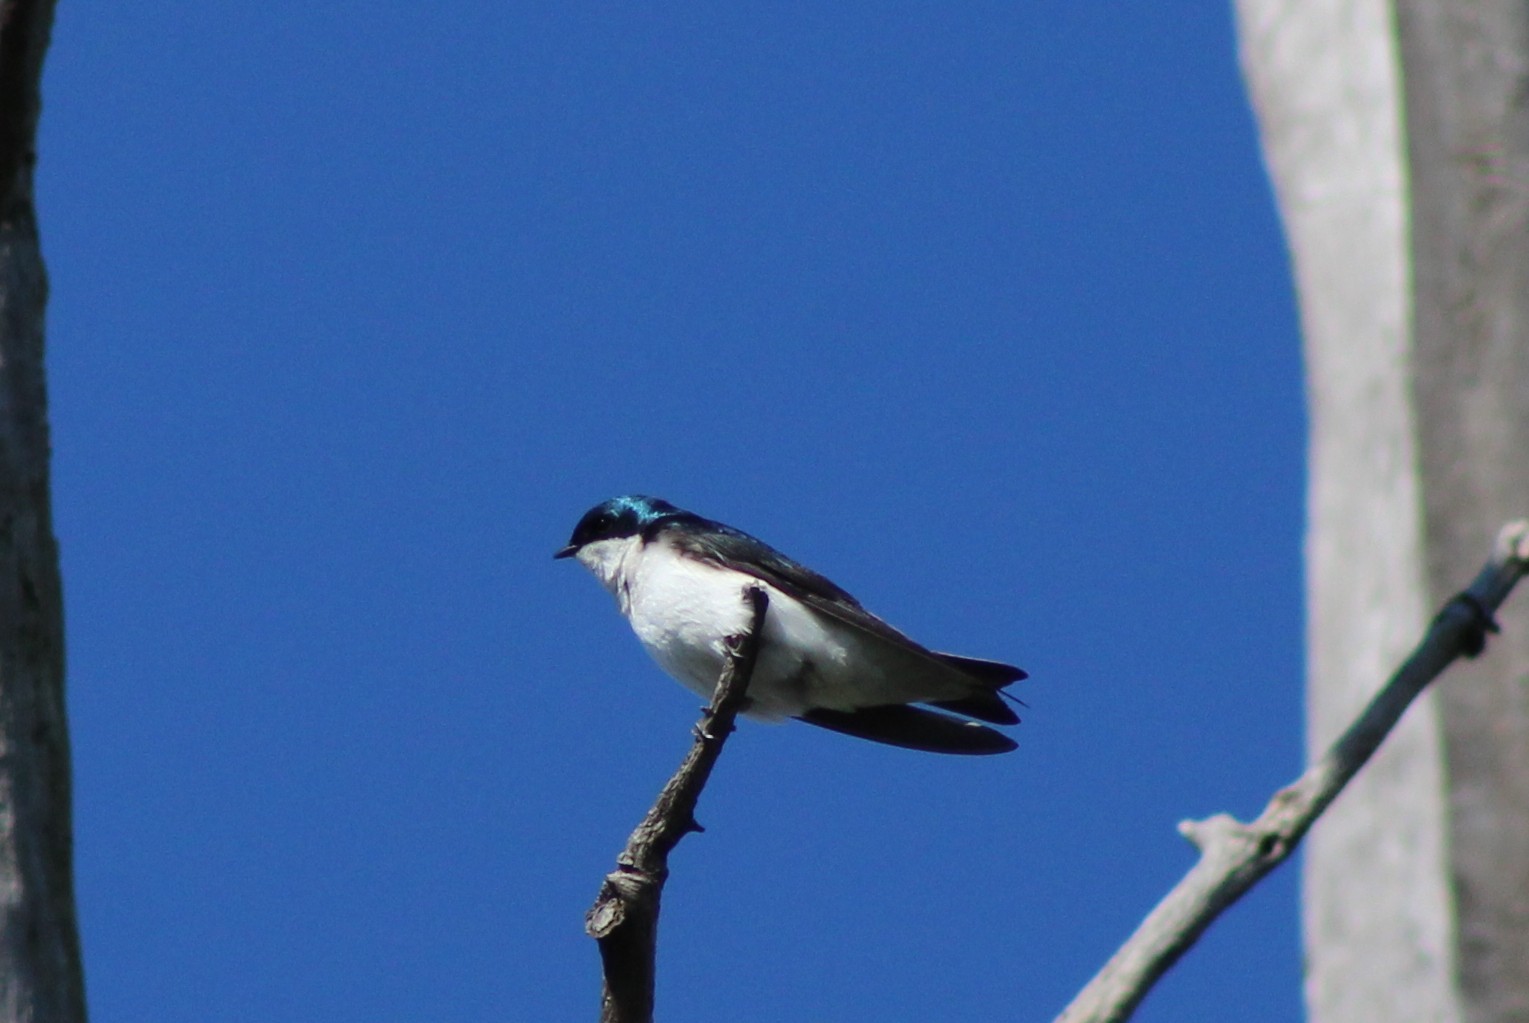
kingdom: Animalia
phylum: Chordata
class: Aves
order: Passeriformes
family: Hirundinidae
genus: Tachycineta
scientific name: Tachycineta bicolor
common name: Tree swallow
